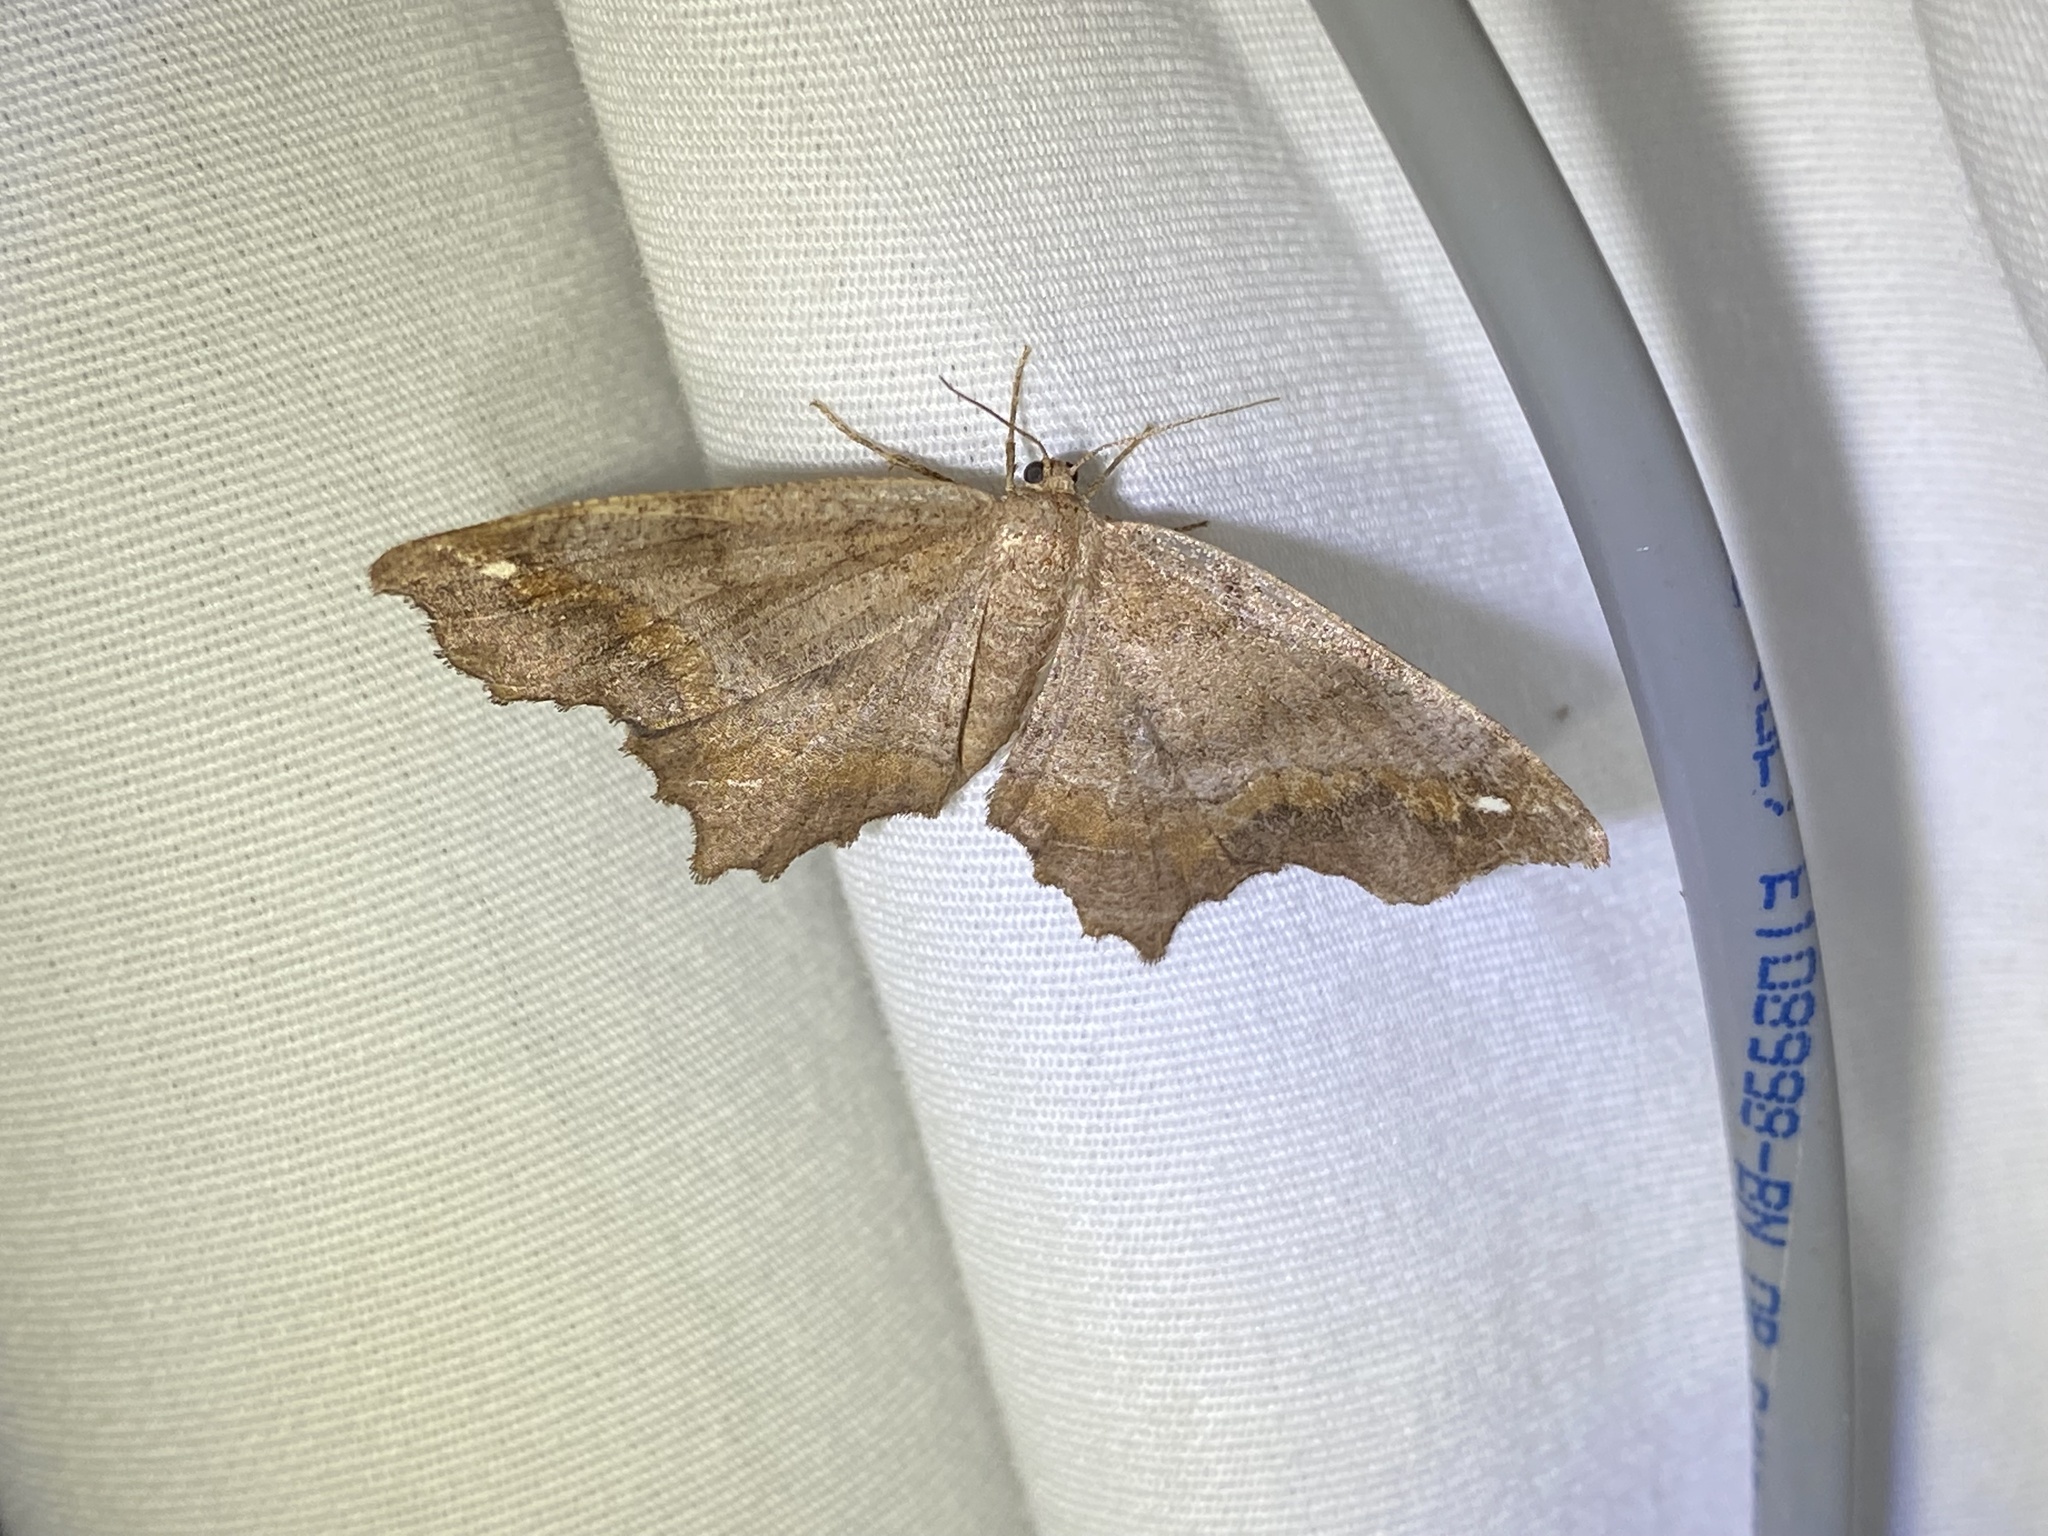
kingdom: Animalia
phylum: Arthropoda
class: Insecta
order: Lepidoptera
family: Geometridae
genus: Hypagyrtis
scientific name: Hypagyrtis esther
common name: Esther moth
